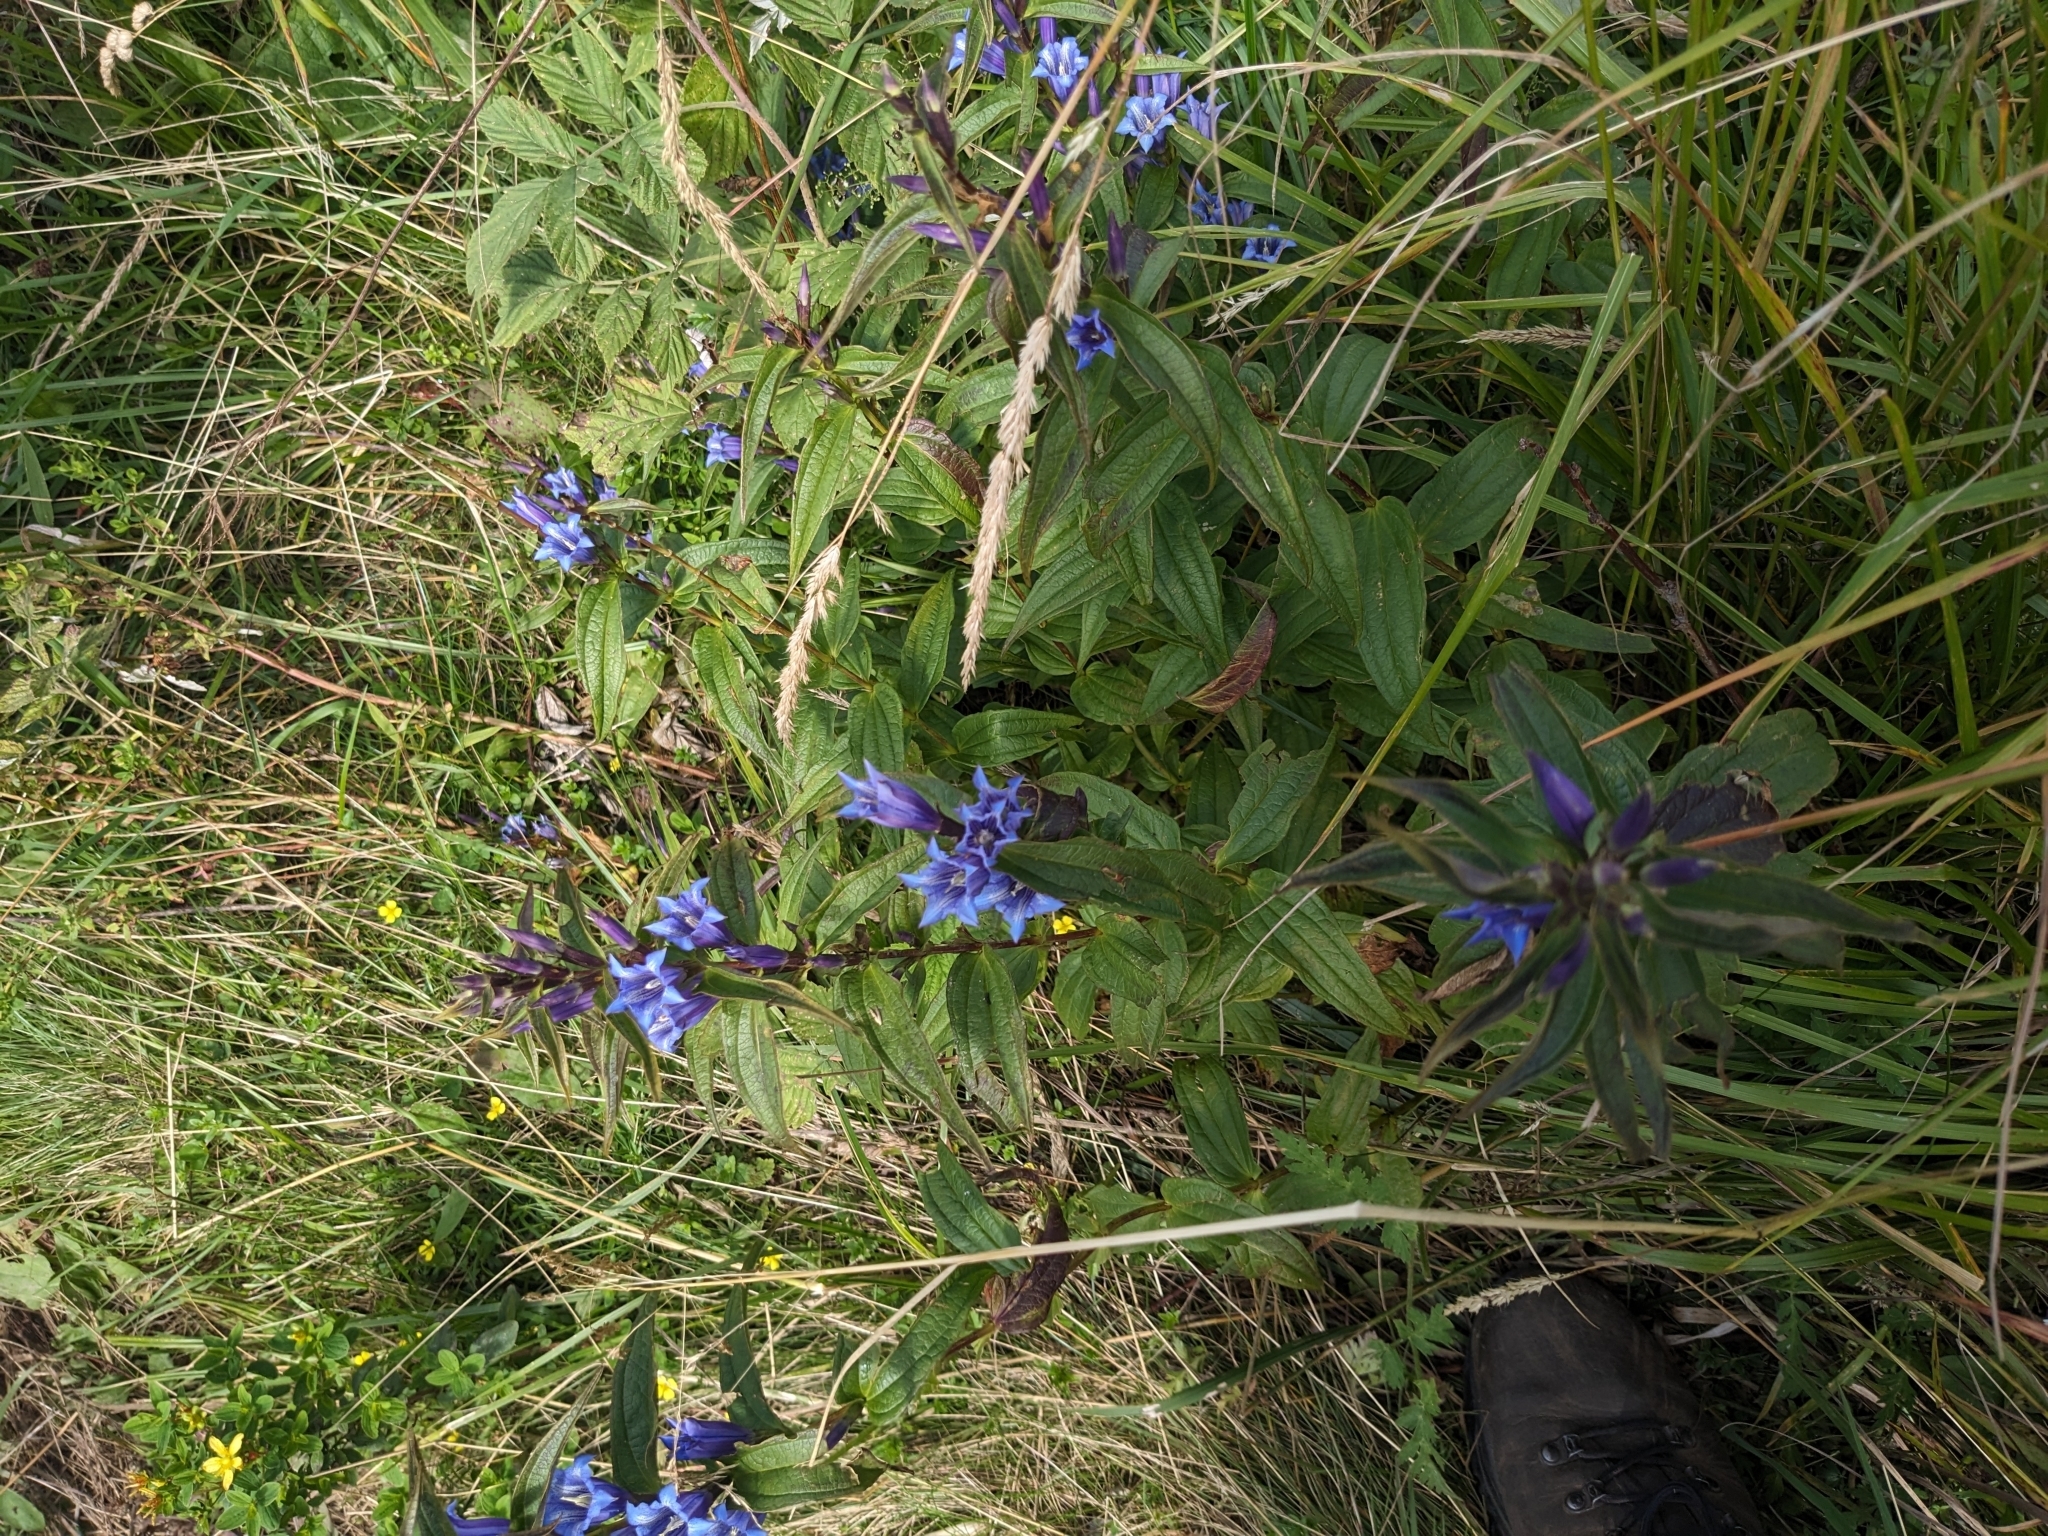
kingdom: Plantae
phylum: Tracheophyta
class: Magnoliopsida
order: Gentianales
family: Gentianaceae
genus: Gentiana
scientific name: Gentiana asclepiadea
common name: Willow gentian
